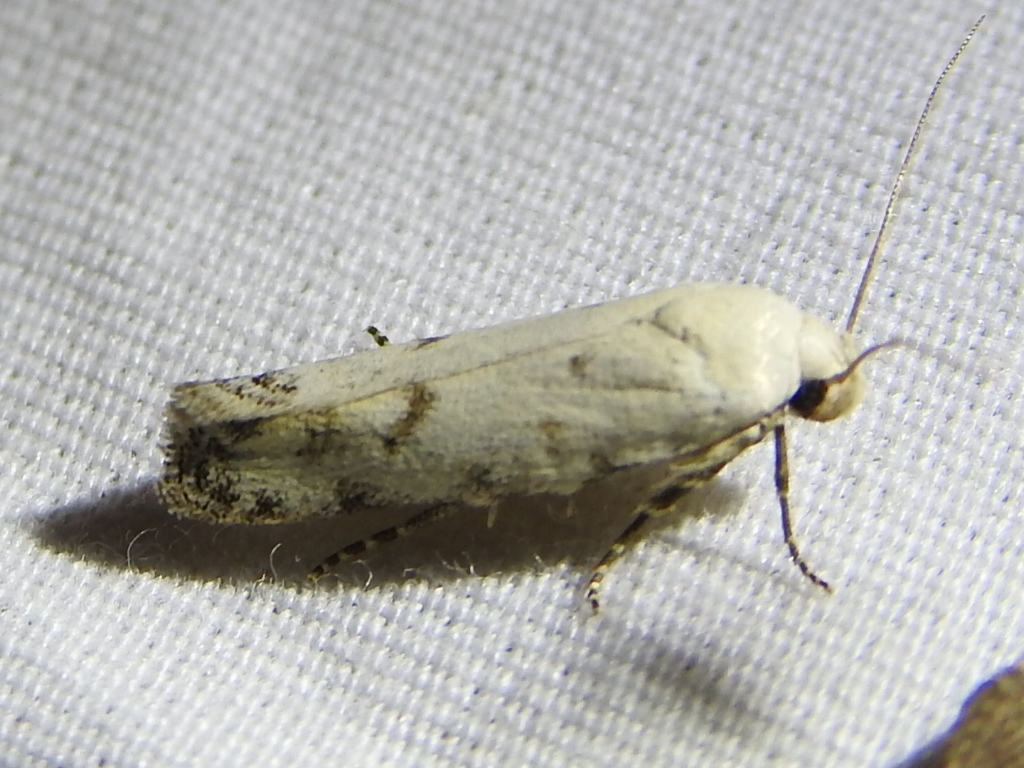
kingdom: Animalia
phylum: Arthropoda
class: Insecta
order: Lepidoptera
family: Gelechiidae
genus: Frumenta
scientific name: Frumenta davidi
